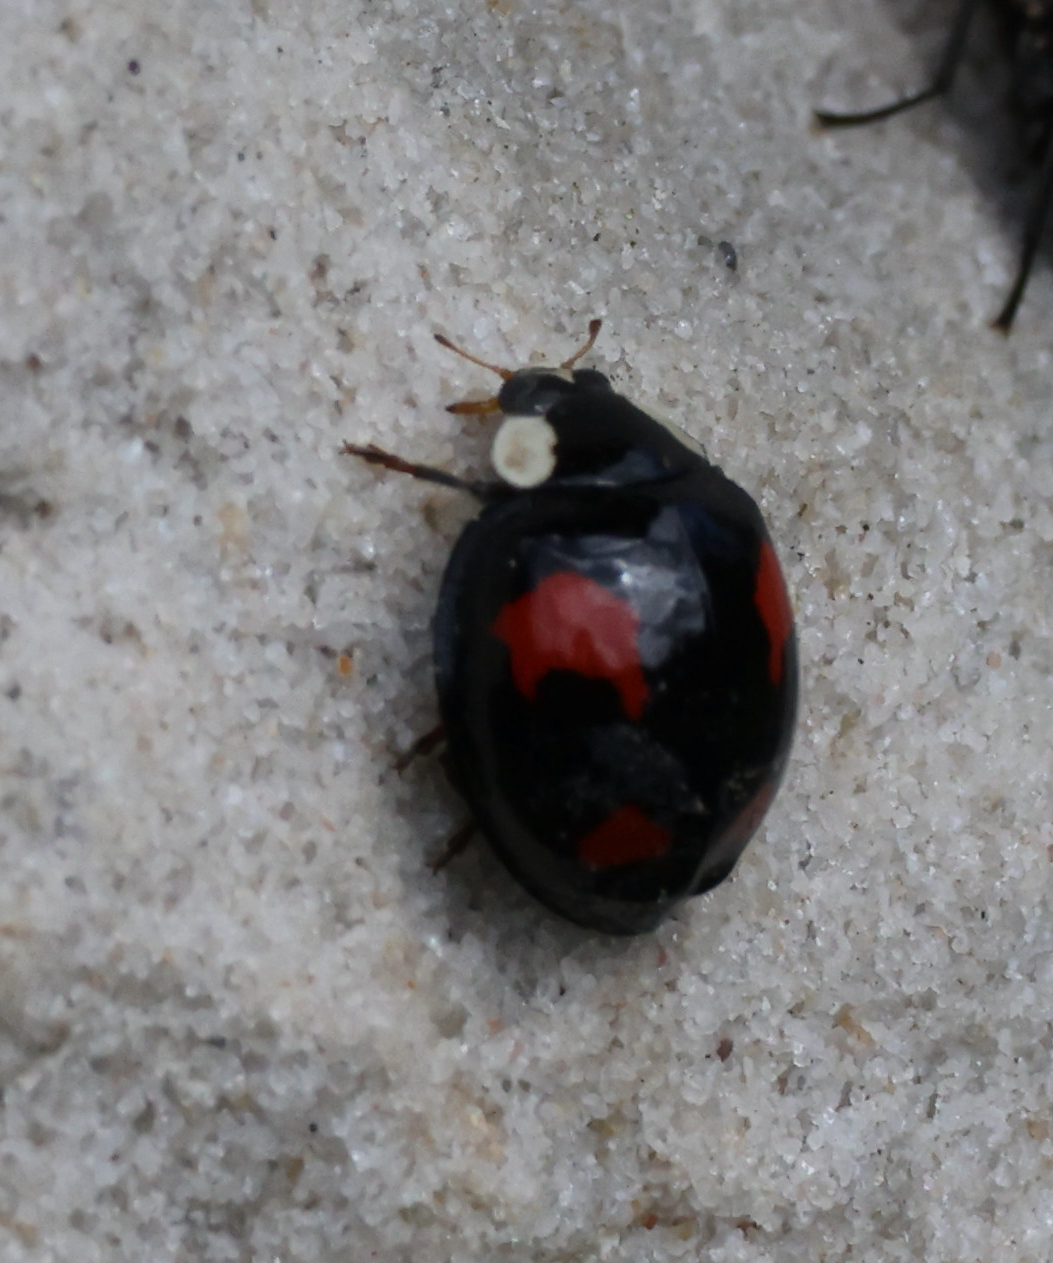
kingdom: Animalia
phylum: Arthropoda
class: Insecta
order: Coleoptera
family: Coccinellidae
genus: Harmonia
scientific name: Harmonia axyridis
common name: Harlequin ladybird
